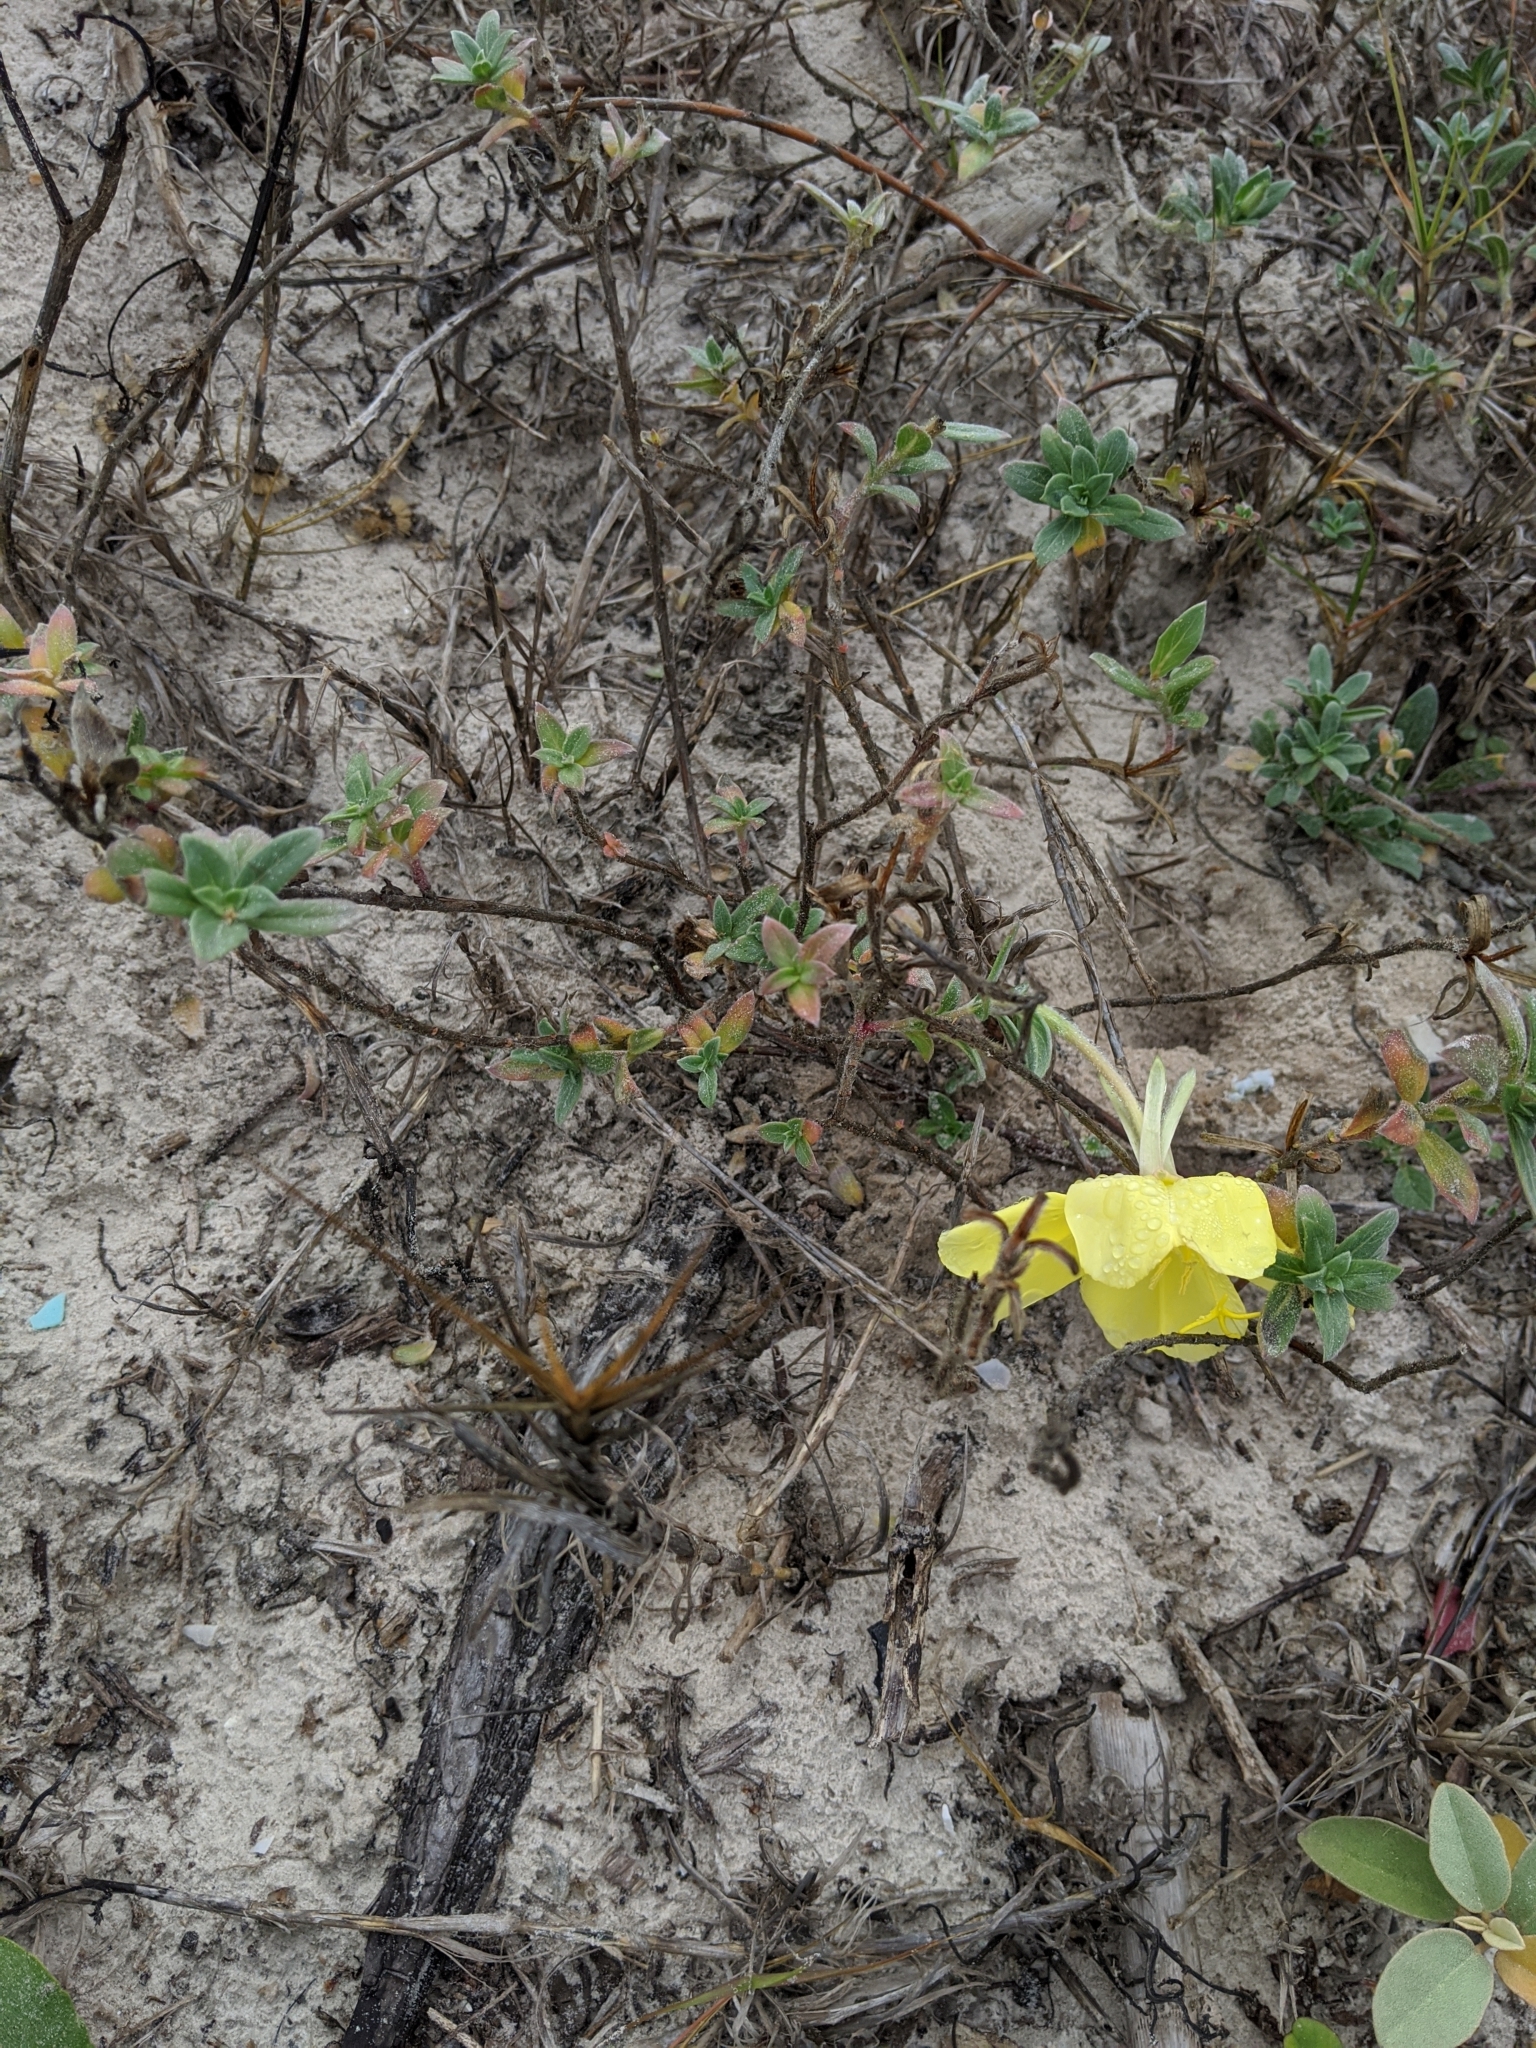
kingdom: Plantae
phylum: Tracheophyta
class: Magnoliopsida
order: Myrtales
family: Onagraceae
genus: Oenothera
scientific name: Oenothera drummondii
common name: Beach evening-primrose
